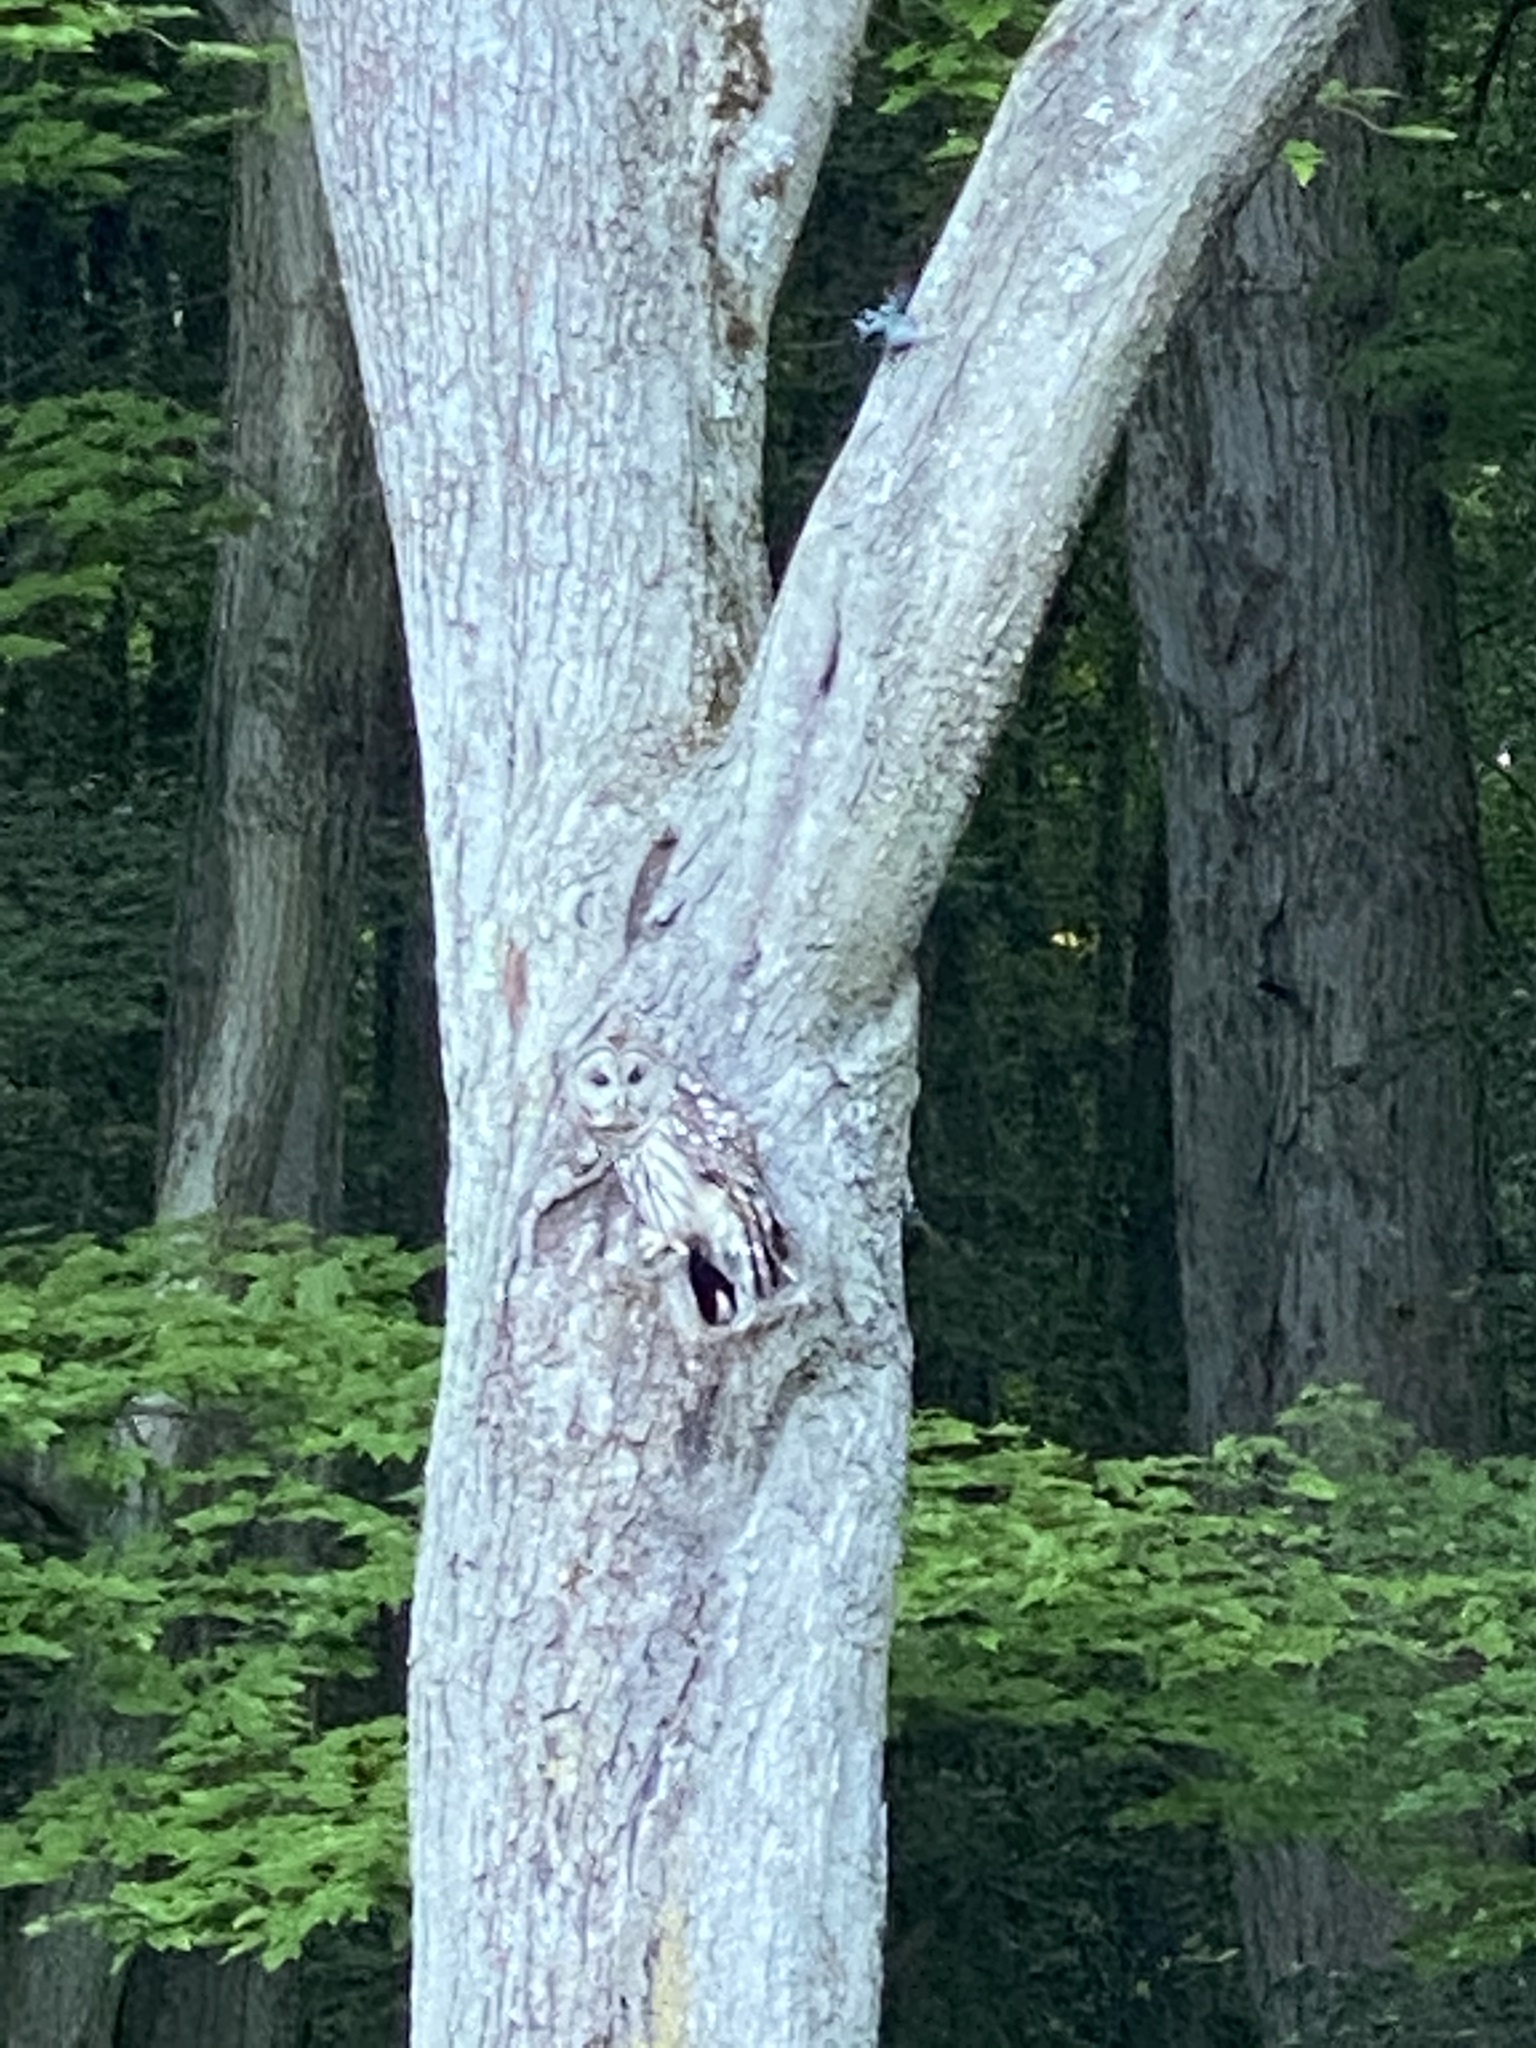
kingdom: Animalia
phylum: Chordata
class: Aves
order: Strigiformes
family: Strigidae
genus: Strix
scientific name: Strix varia
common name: Barred owl
